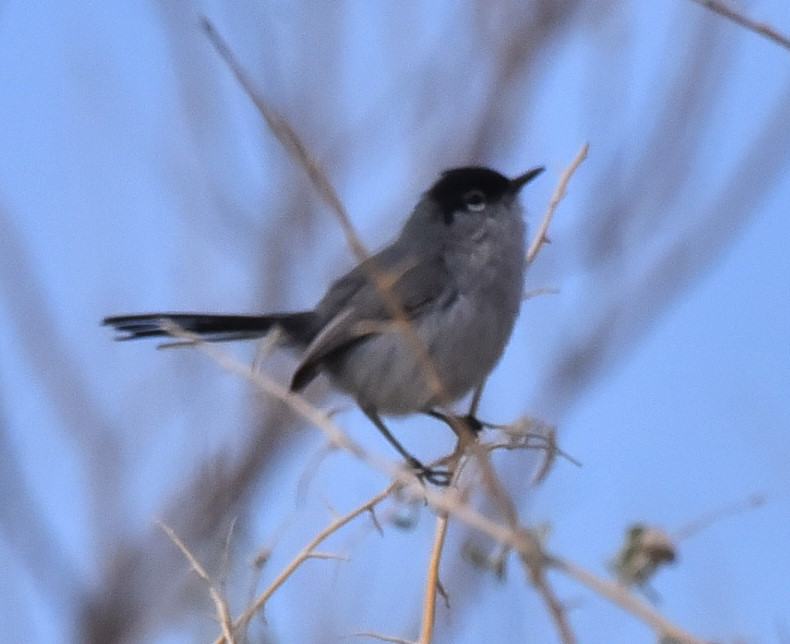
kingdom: Animalia
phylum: Chordata
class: Aves
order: Passeriformes
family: Polioptilidae
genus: Polioptila
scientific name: Polioptila melanura
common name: Black-tailed gnatcatcher
